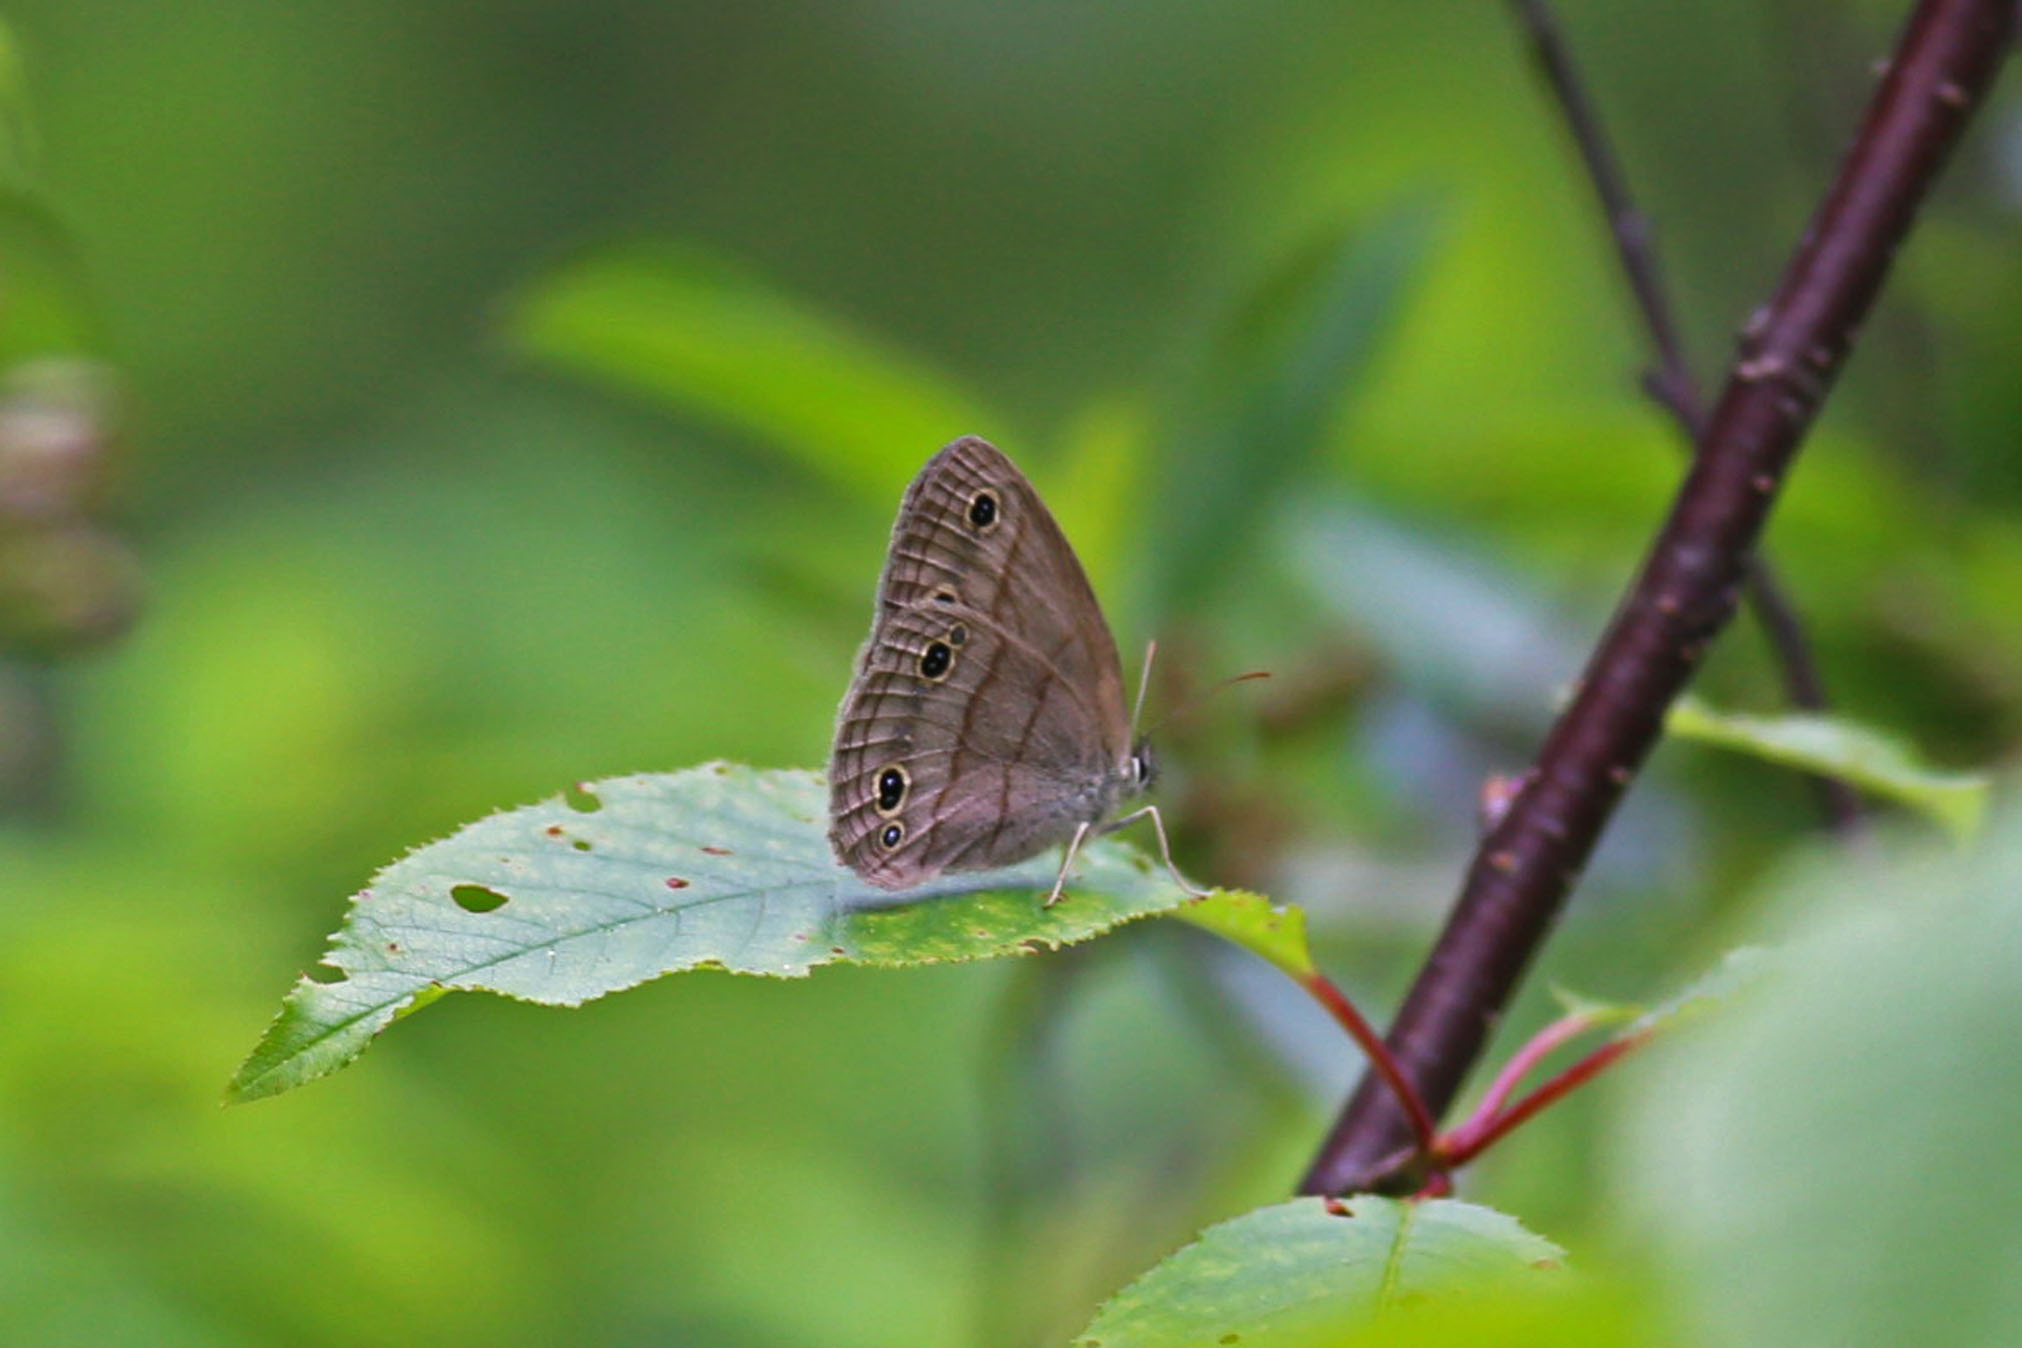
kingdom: Animalia
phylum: Arthropoda
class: Insecta
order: Lepidoptera
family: Nymphalidae
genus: Euptychia
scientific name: Euptychia cymela
